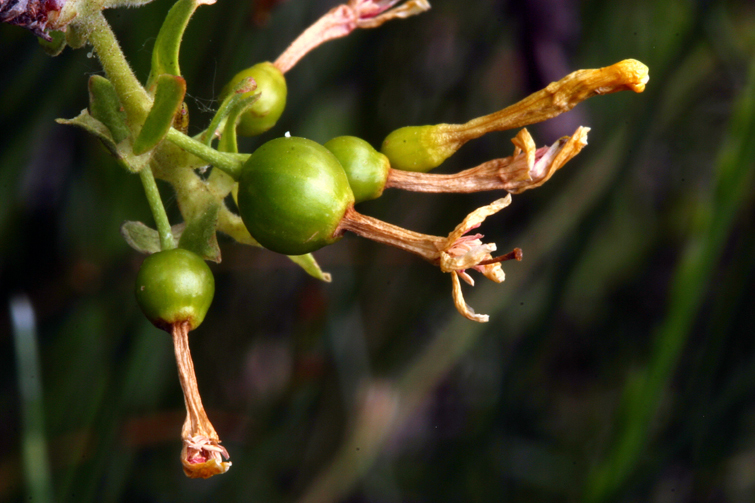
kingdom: Plantae
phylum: Tracheophyta
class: Magnoliopsida
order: Saxifragales
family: Grossulariaceae
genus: Ribes
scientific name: Ribes aureum
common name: Golden currant
